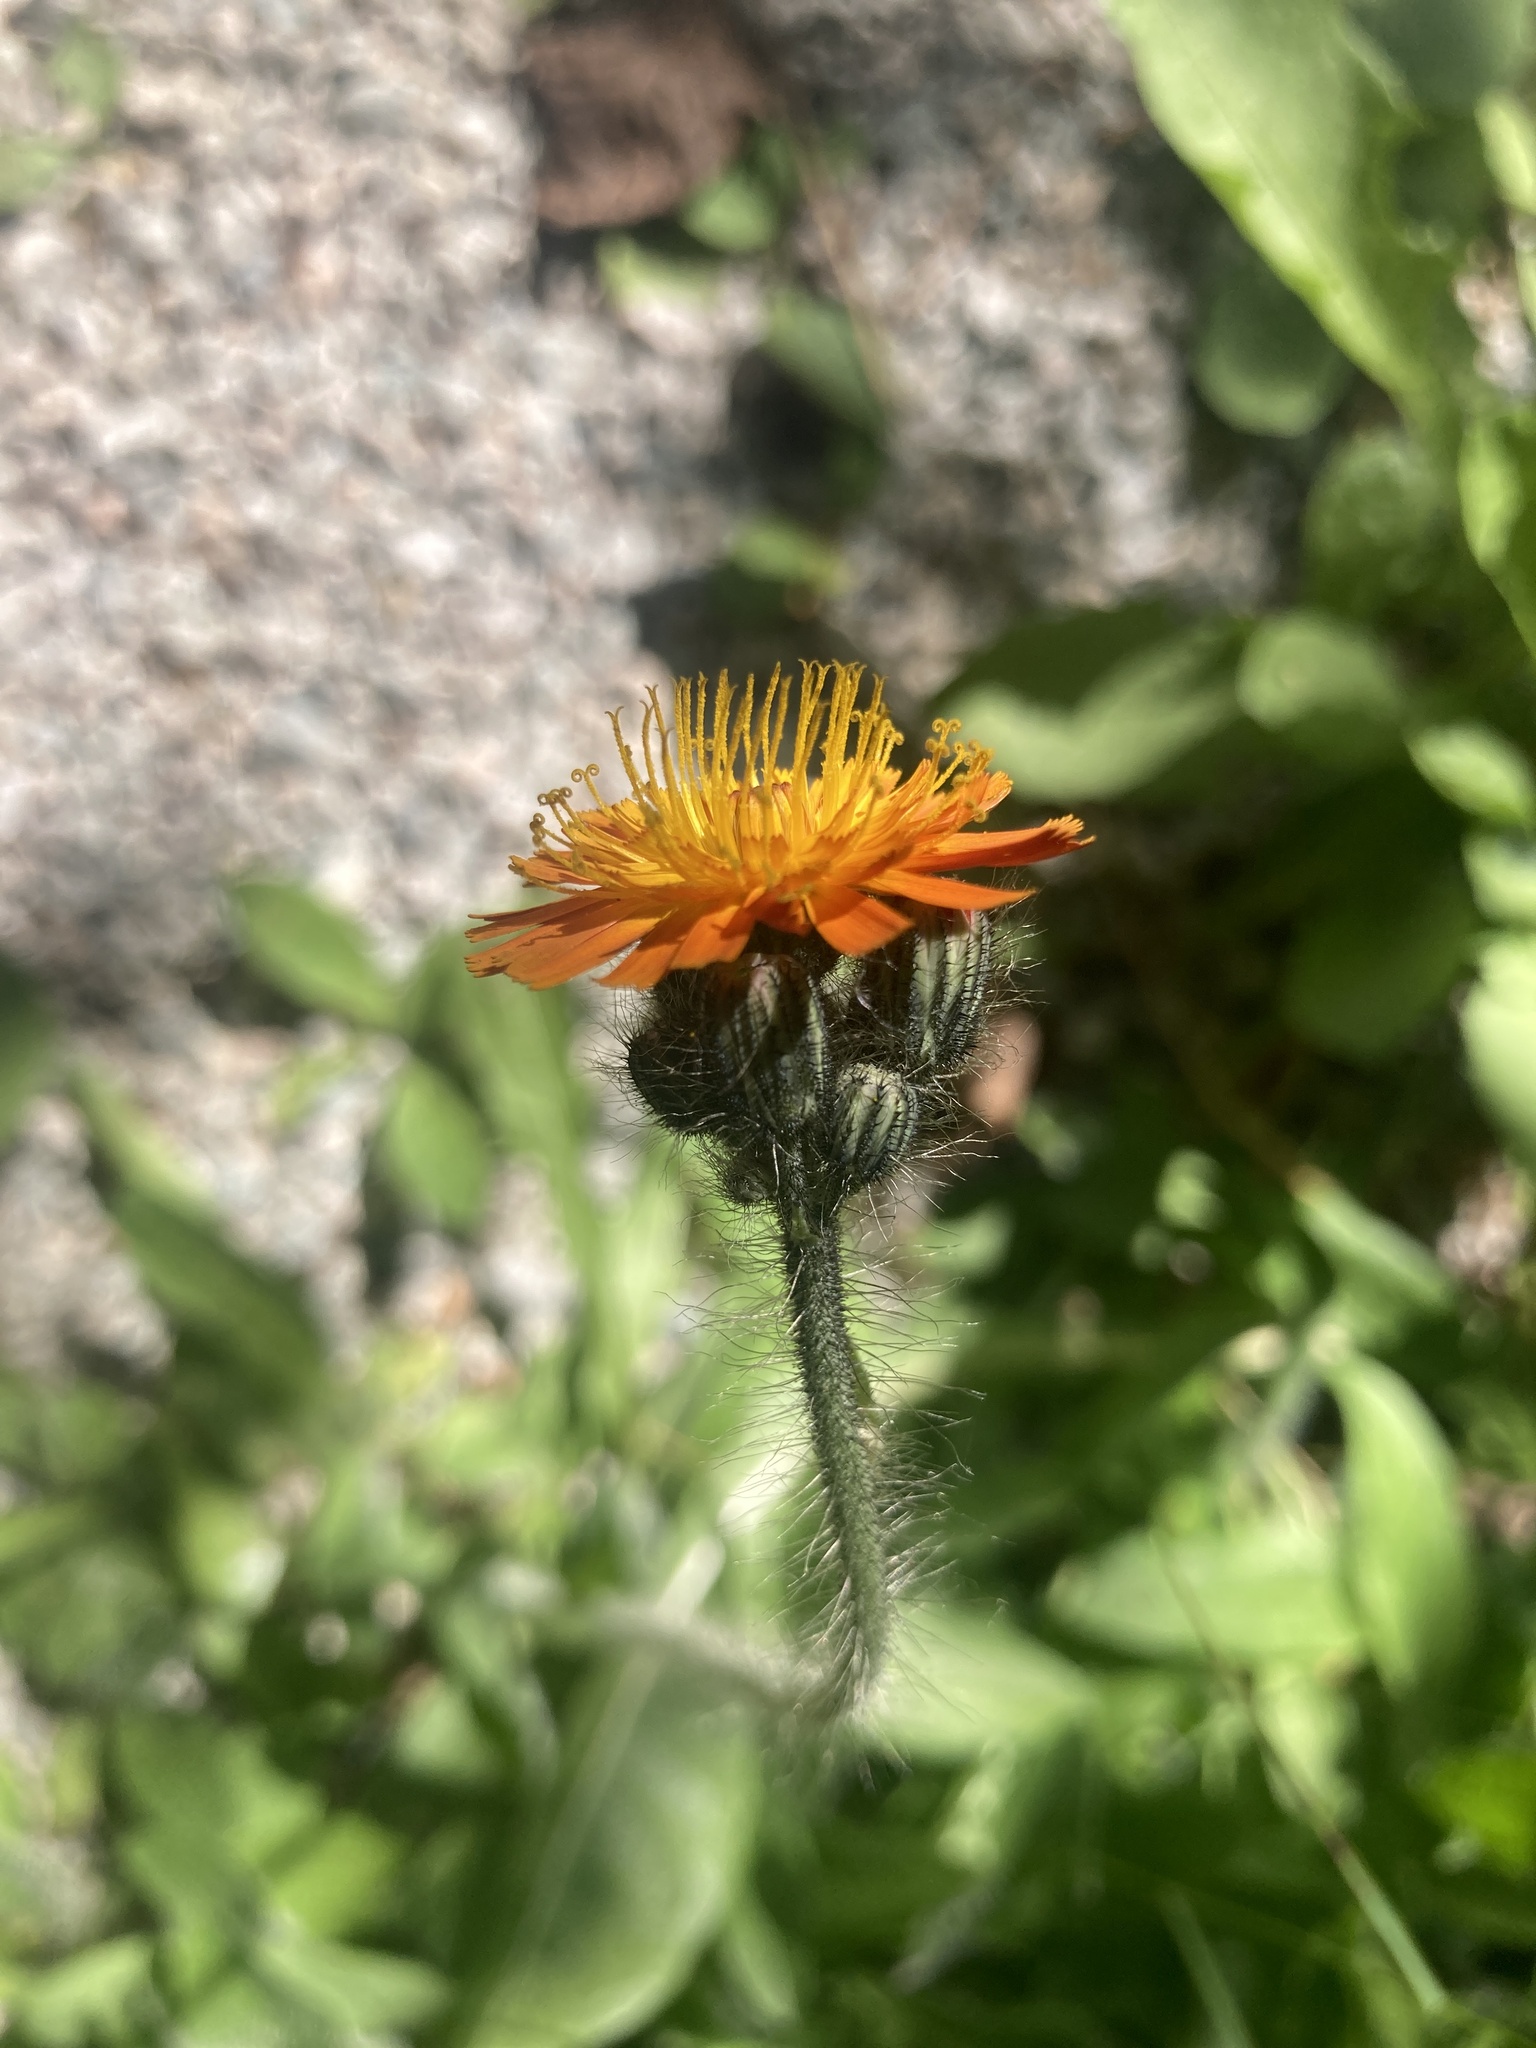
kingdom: Plantae
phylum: Tracheophyta
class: Magnoliopsida
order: Asterales
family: Asteraceae
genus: Pilosella
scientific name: Pilosella aurantiaca
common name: Fox-and-cubs
